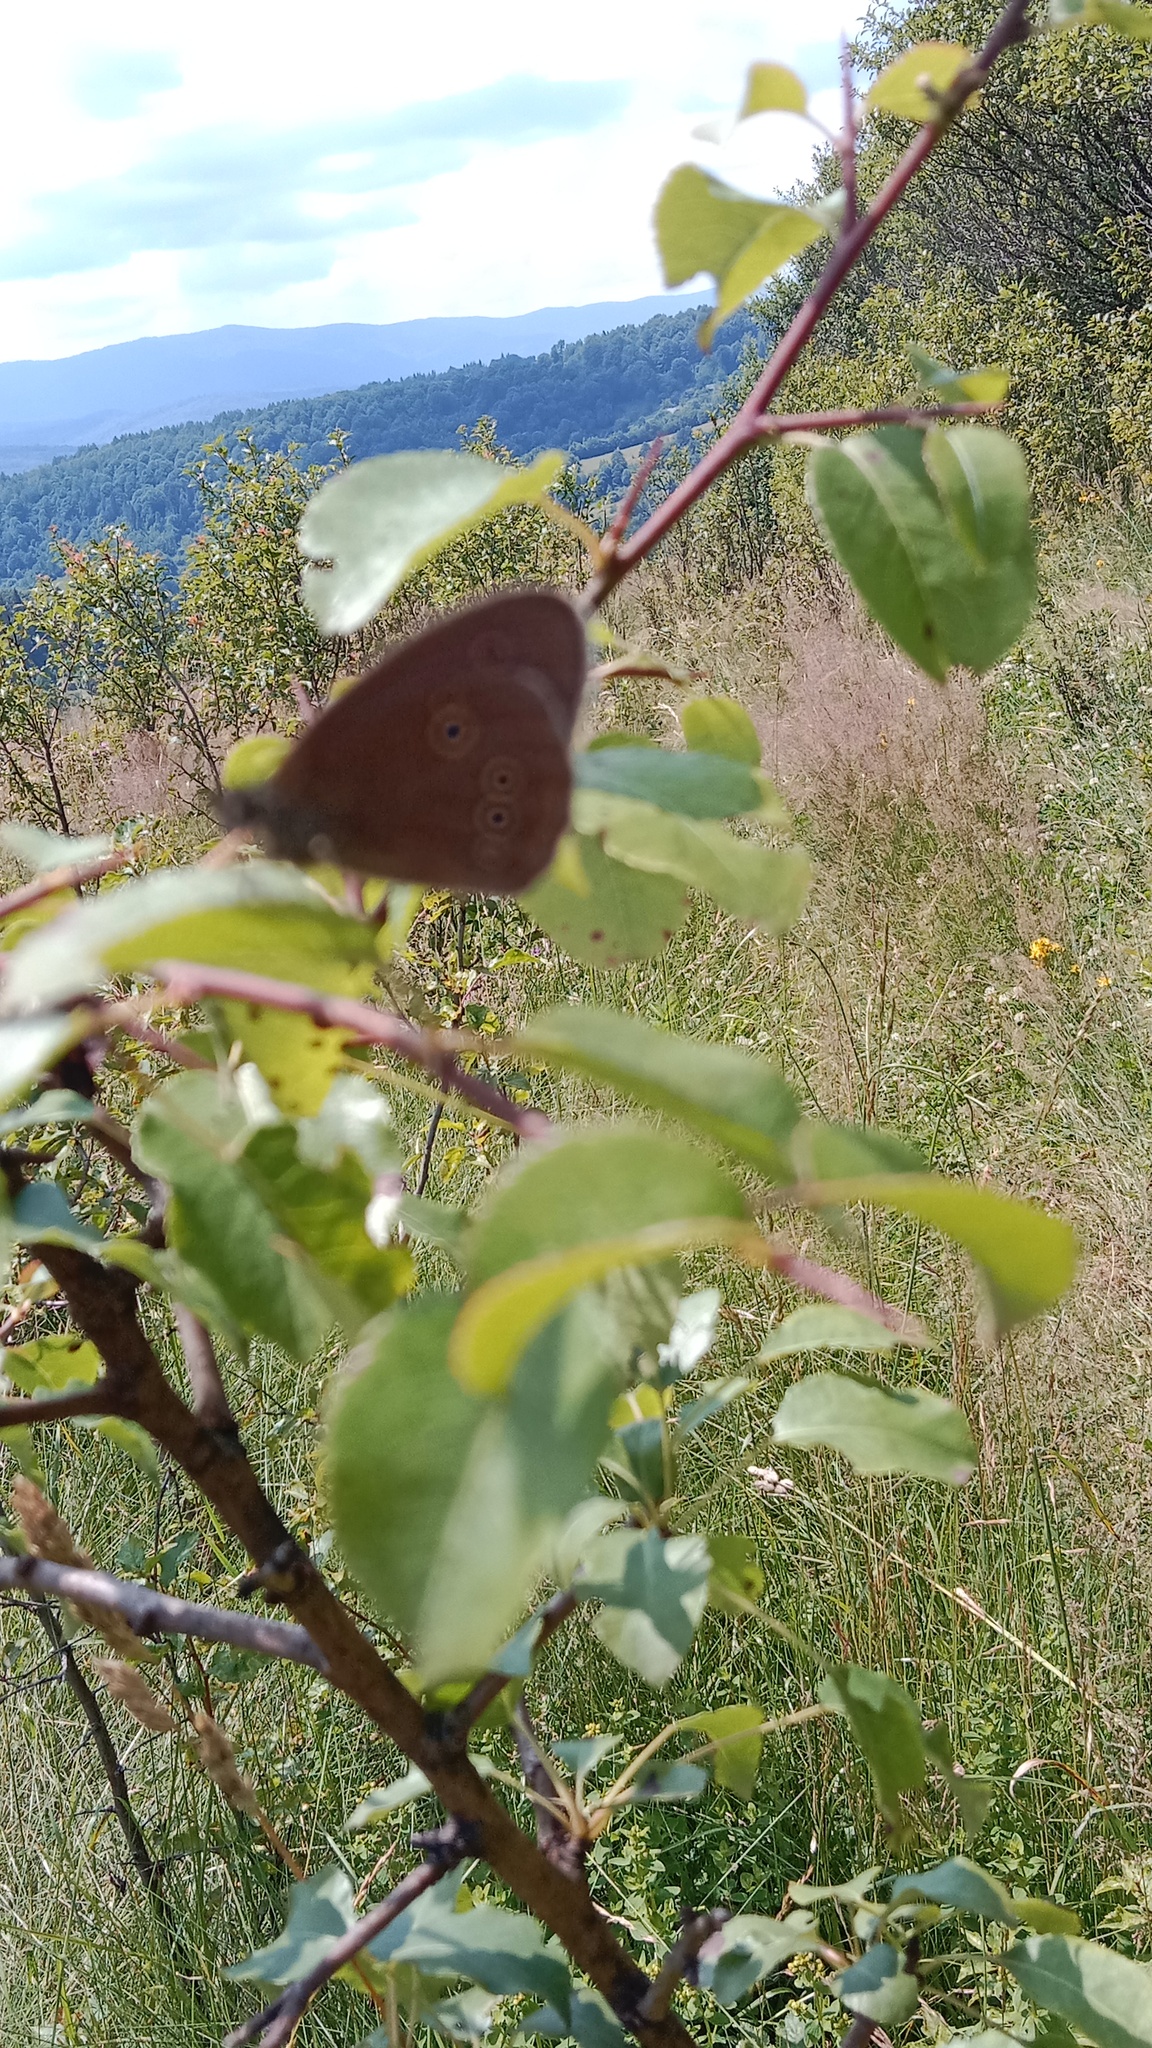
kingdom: Animalia
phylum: Arthropoda
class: Insecta
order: Lepidoptera
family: Nymphalidae
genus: Aphantopus
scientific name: Aphantopus hyperantus
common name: Ringlet
